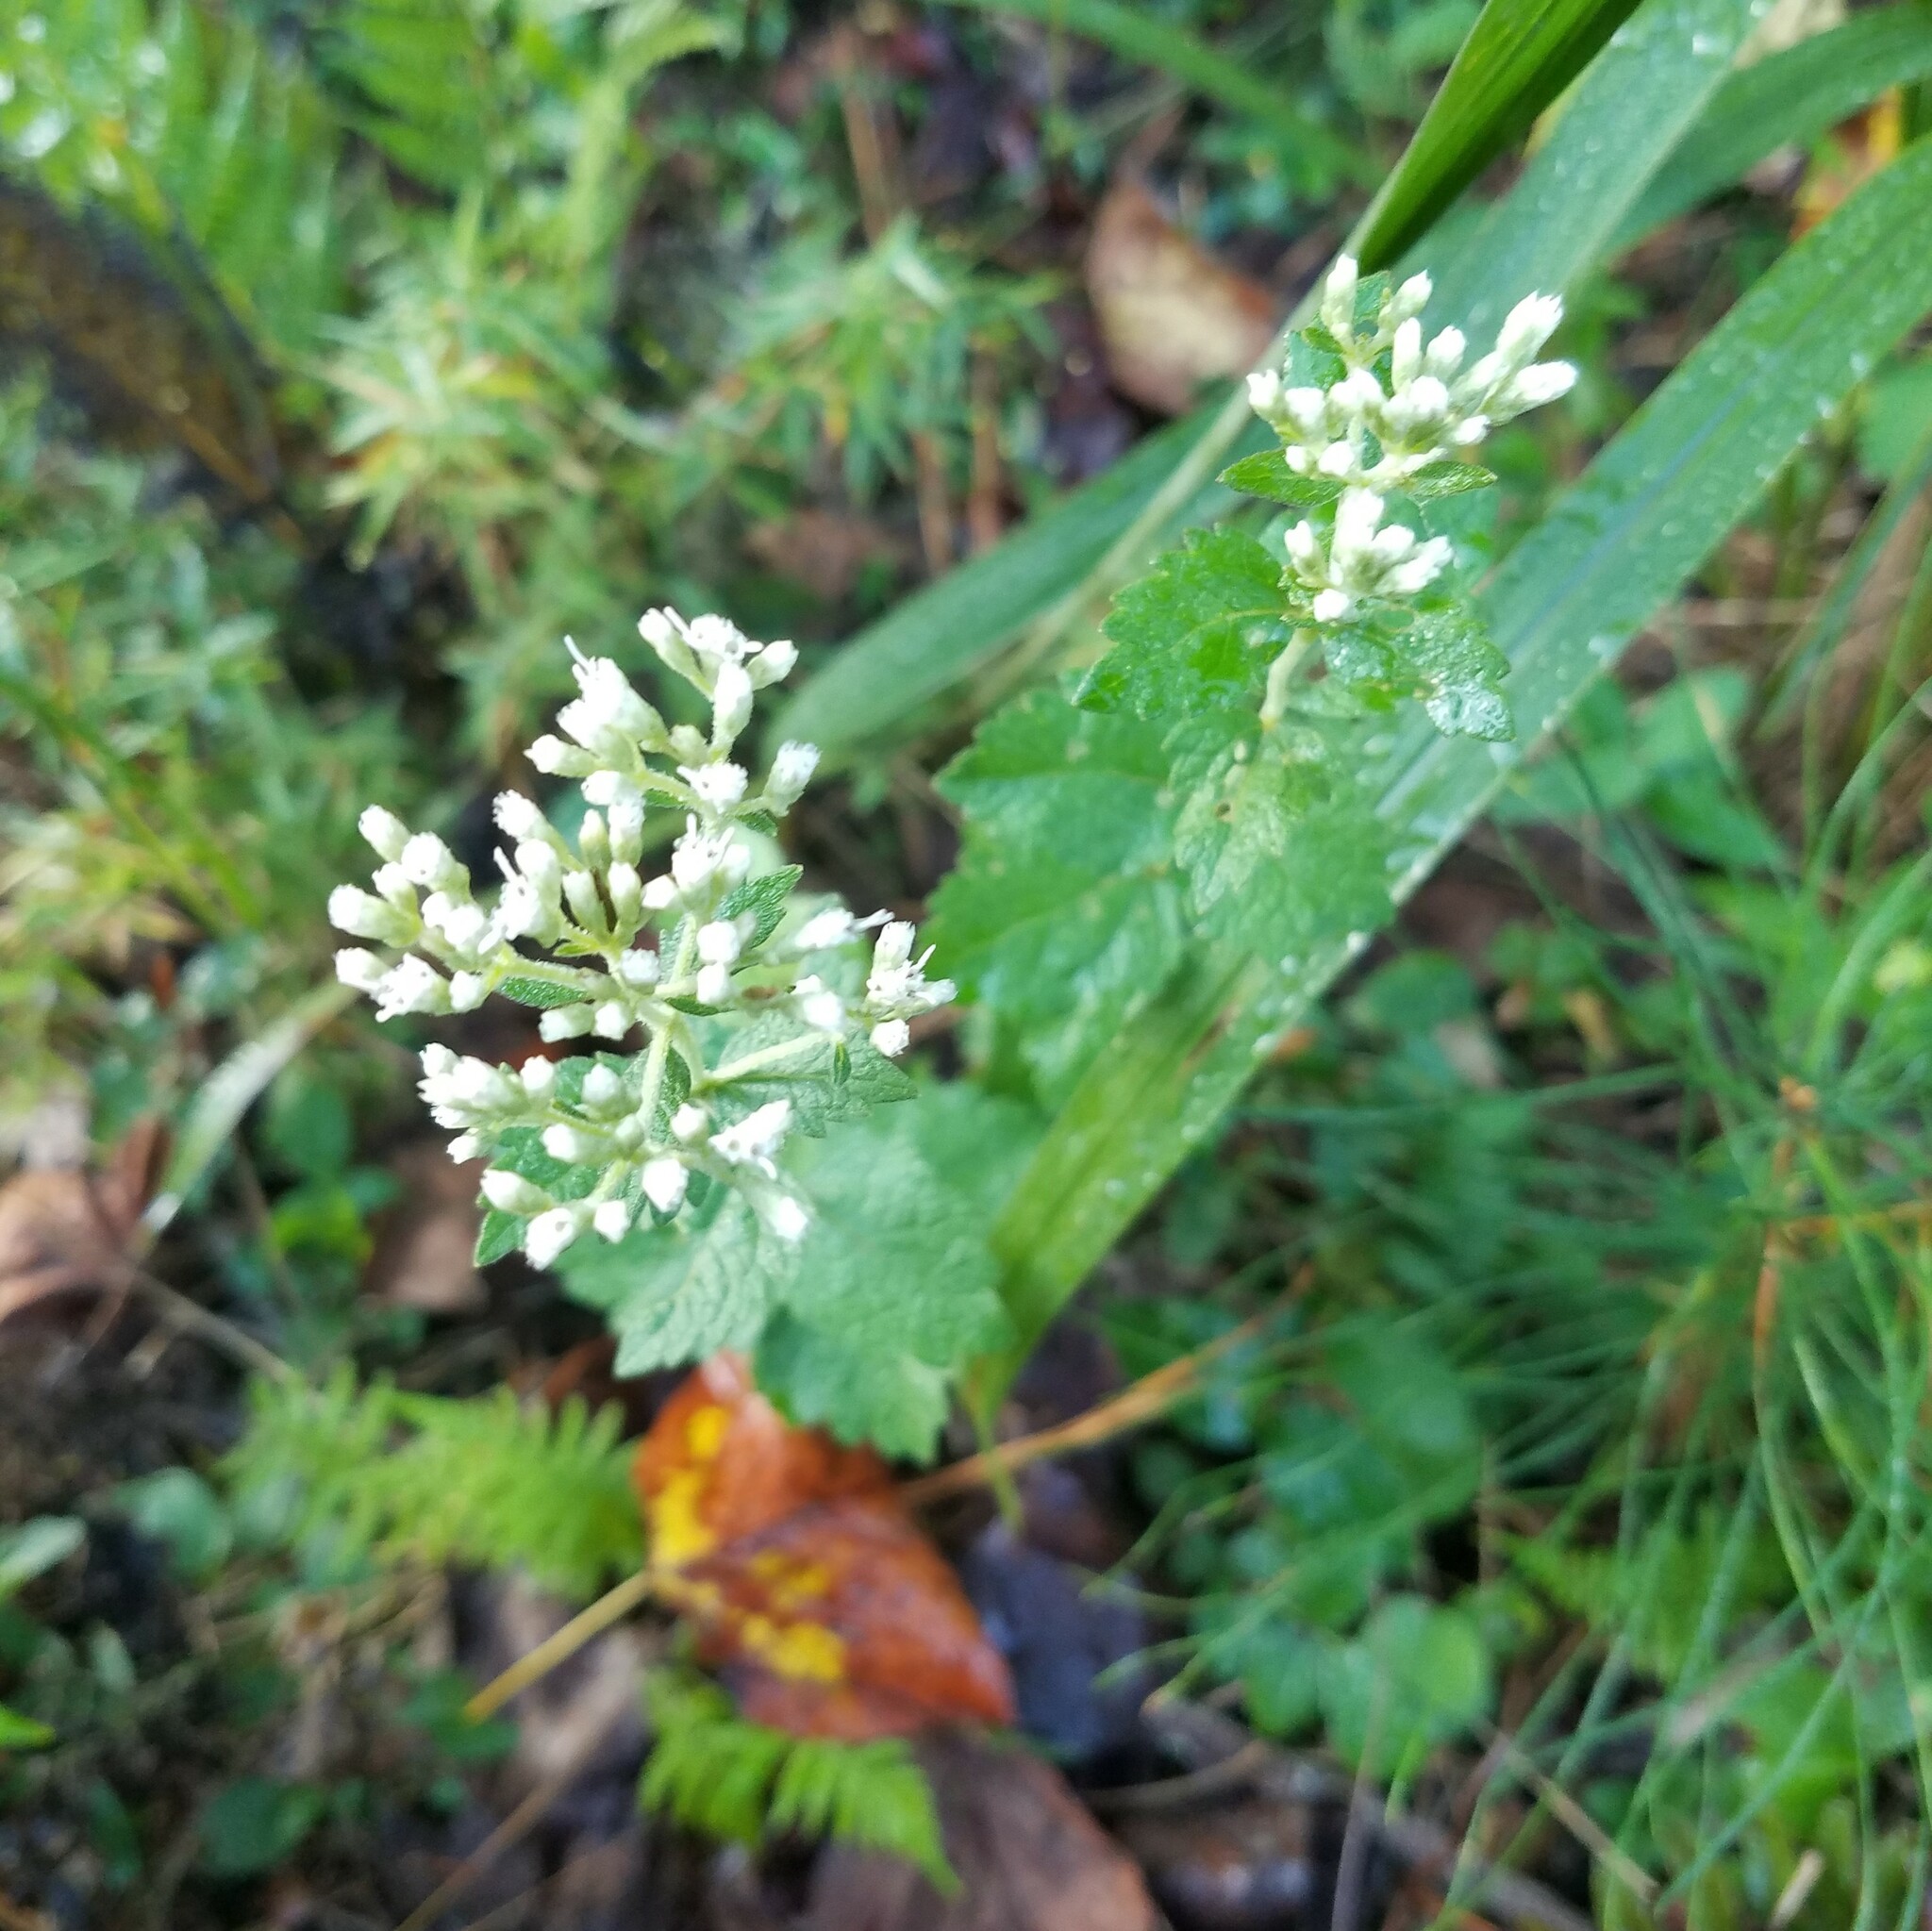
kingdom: Plantae
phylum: Tracheophyta
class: Magnoliopsida
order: Asterales
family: Asteraceae
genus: Eupatorium
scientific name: Eupatorium rotundifolium
